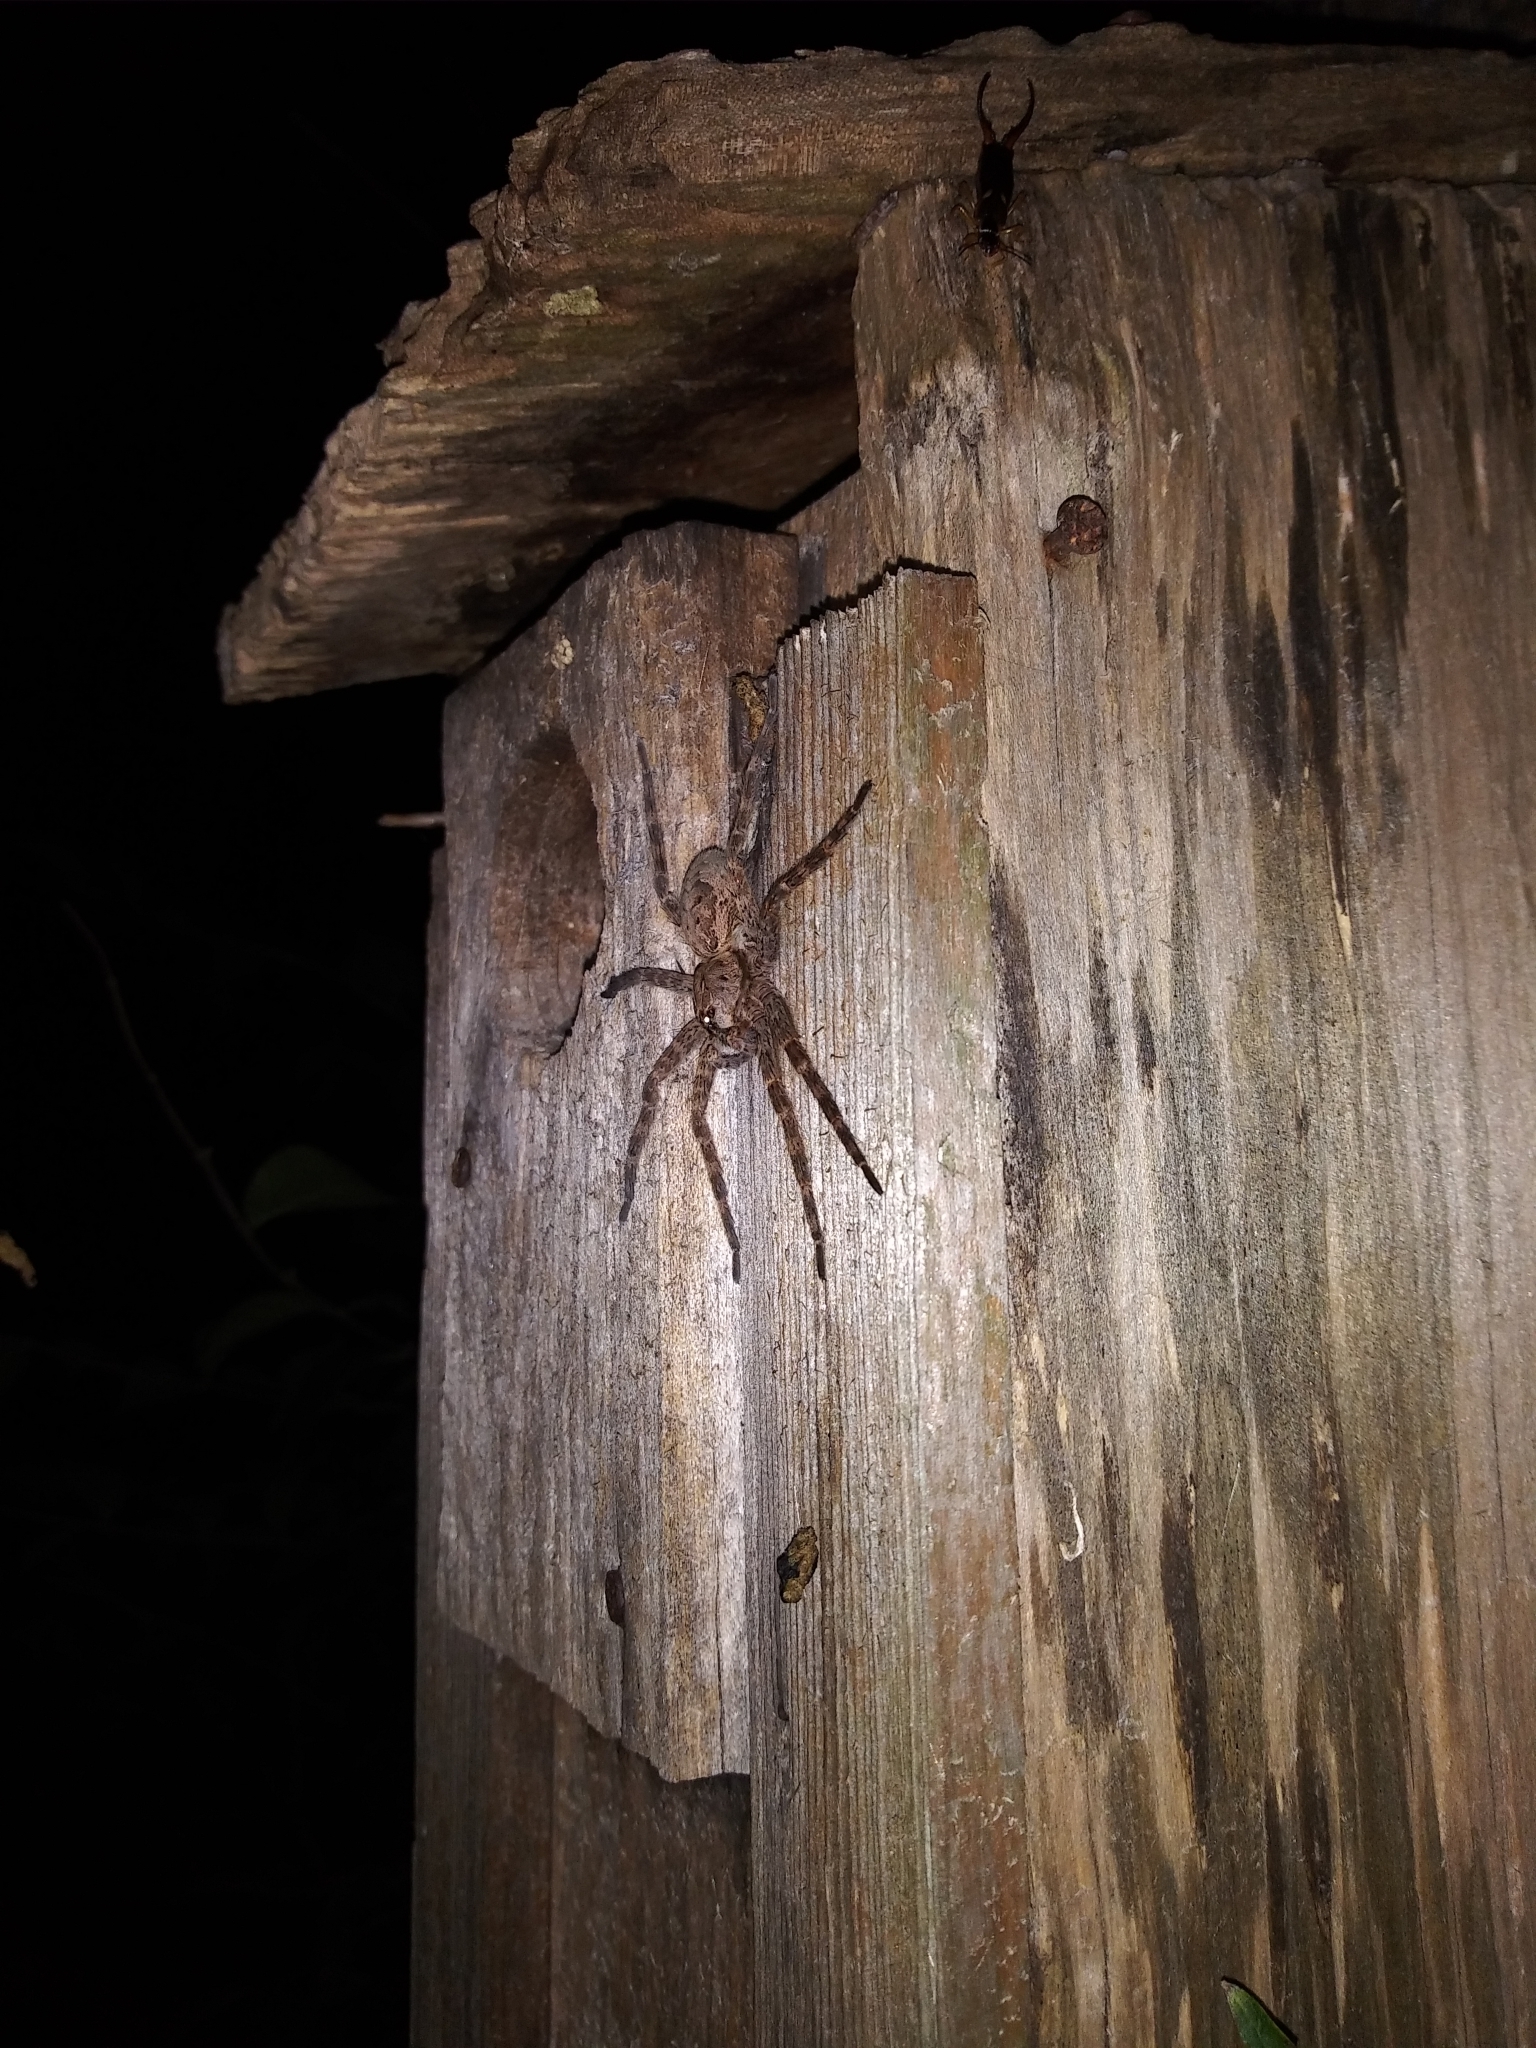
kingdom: Animalia
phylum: Arthropoda
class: Arachnida
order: Araneae
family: Pisauridae
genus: Dolomedes
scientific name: Dolomedes tenebrosus
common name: Dark fishing spider
